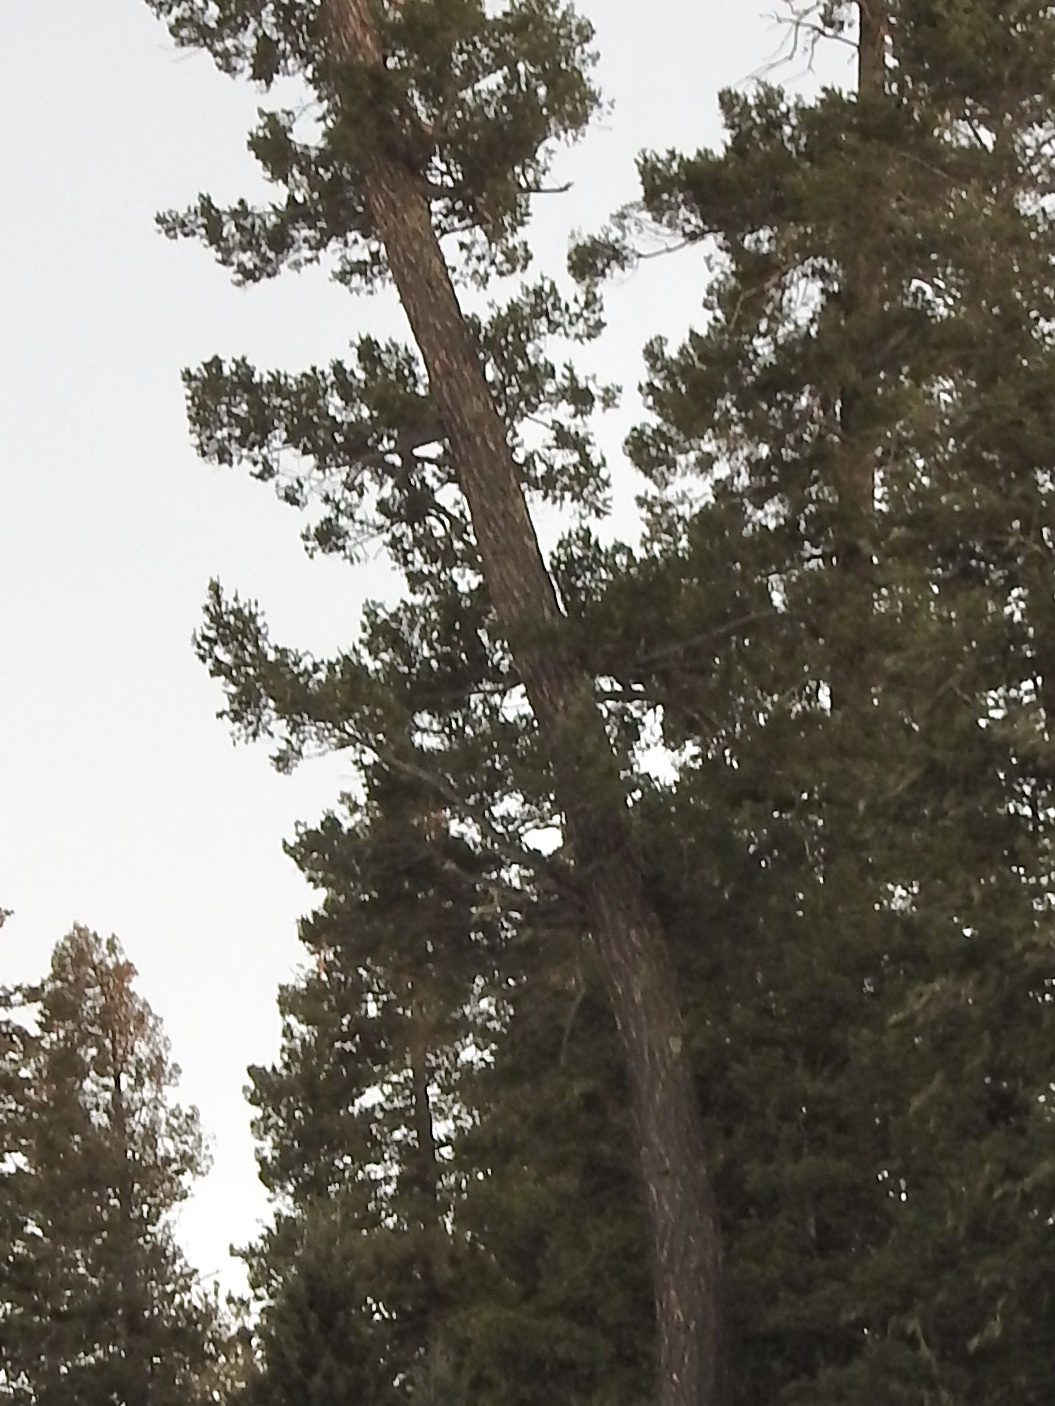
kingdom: Plantae
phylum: Tracheophyta
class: Pinopsida
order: Pinales
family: Pinaceae
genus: Pseudotsuga
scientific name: Pseudotsuga menziesii
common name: Douglas fir
